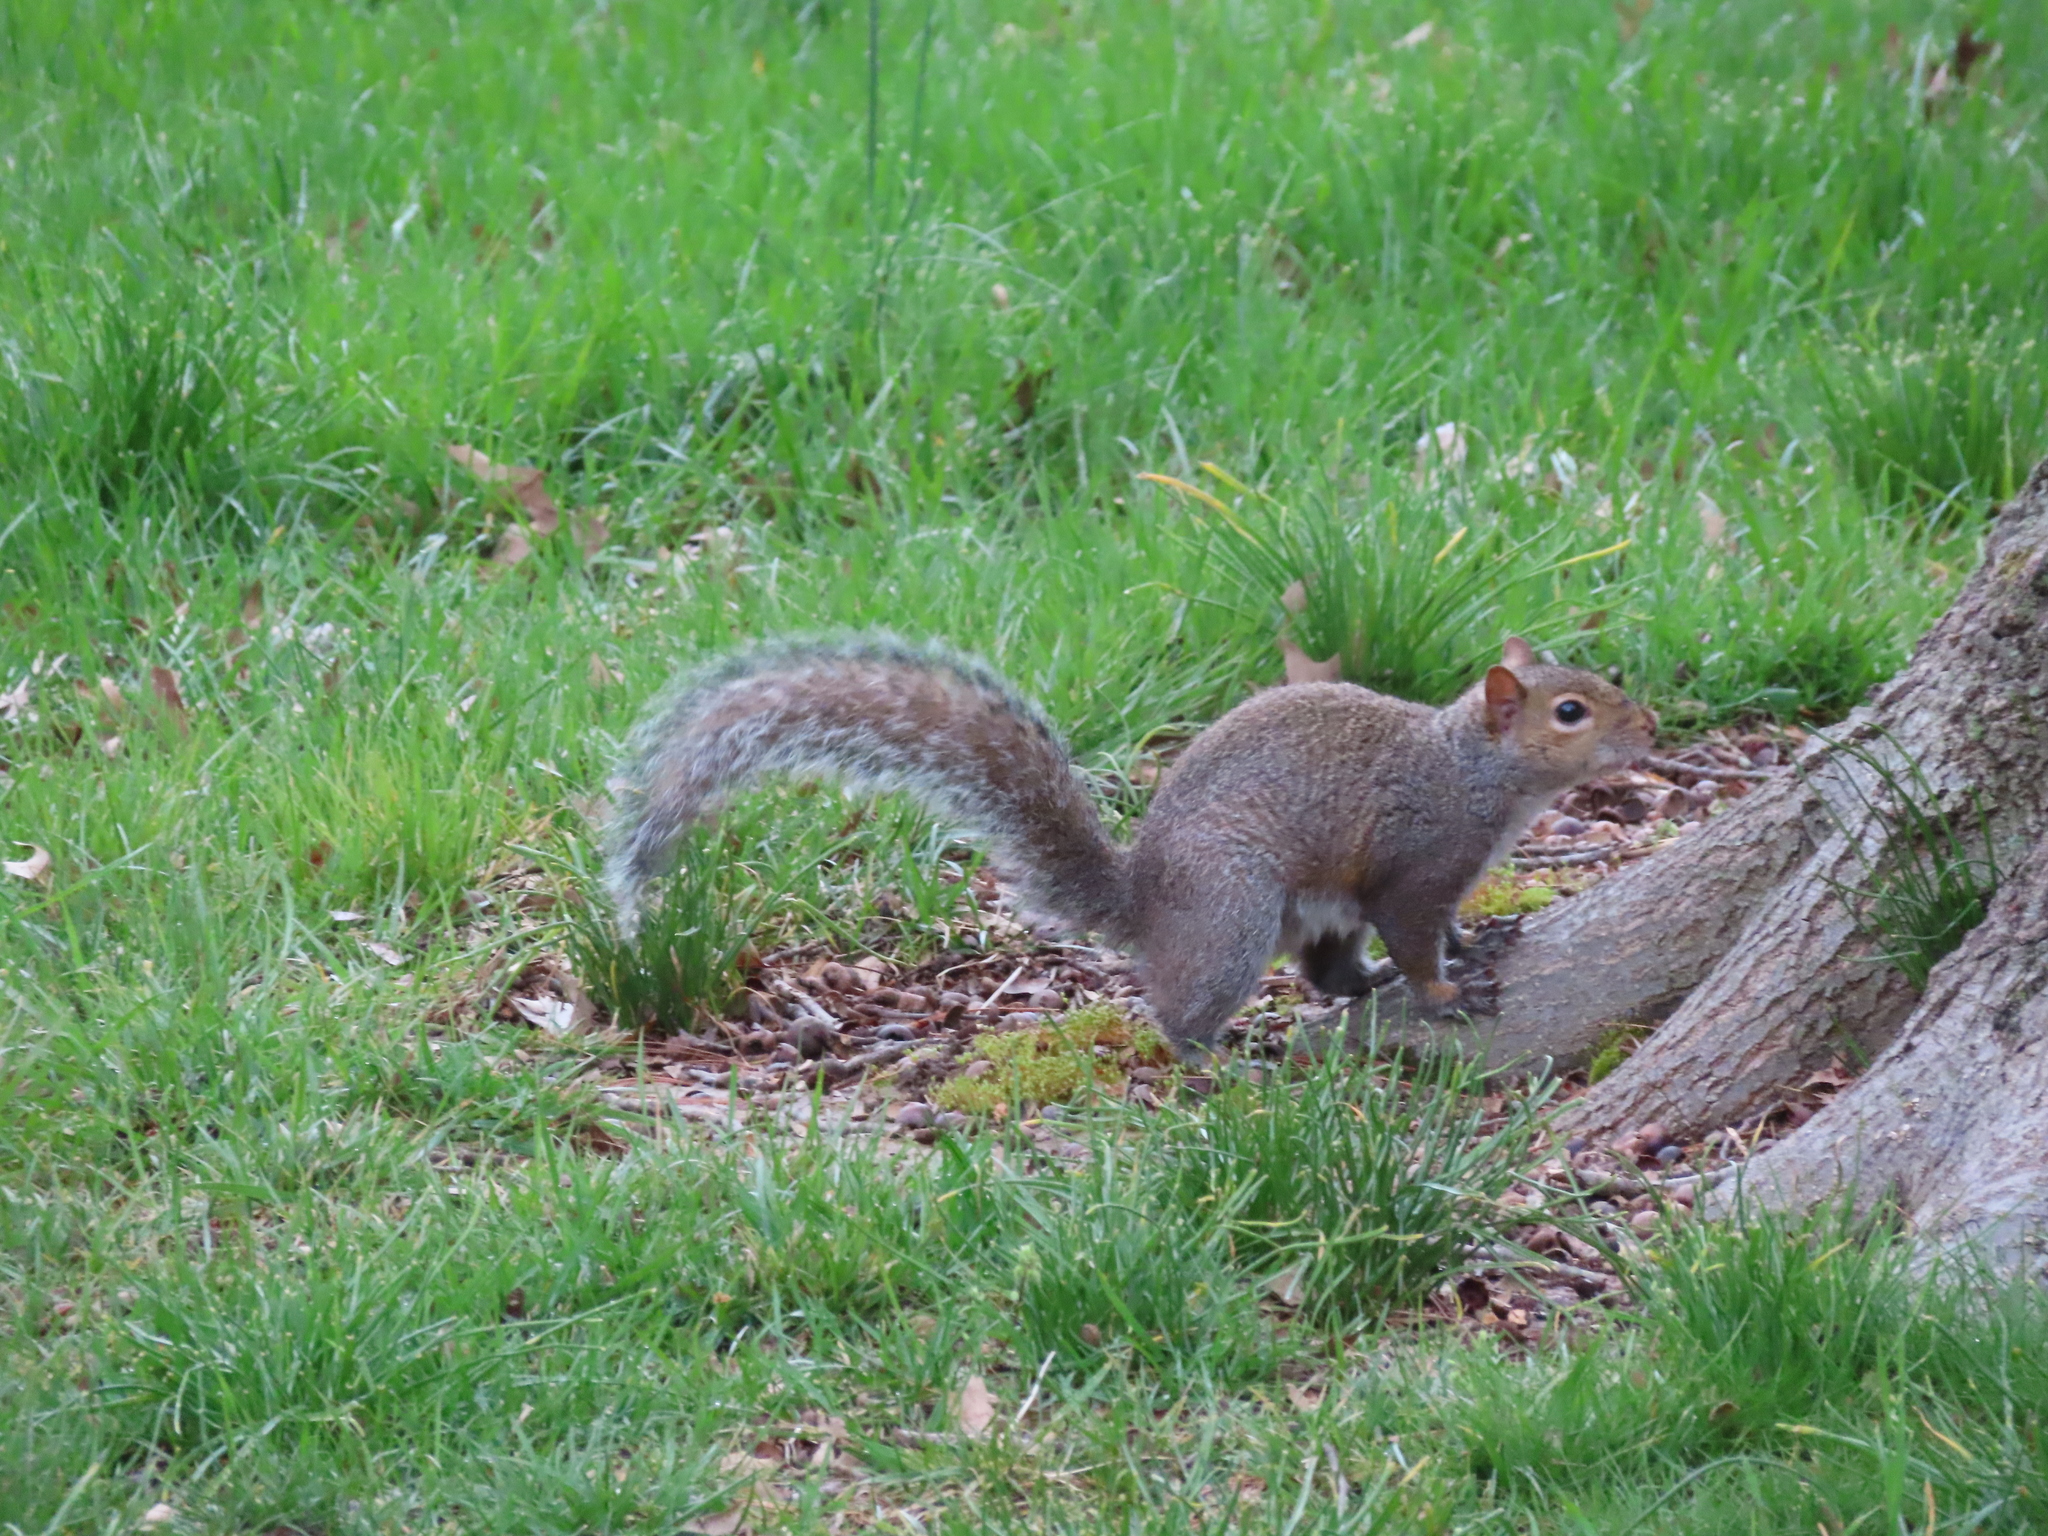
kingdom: Animalia
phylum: Chordata
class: Mammalia
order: Rodentia
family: Sciuridae
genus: Sciurus
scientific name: Sciurus carolinensis
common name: Eastern gray squirrel
